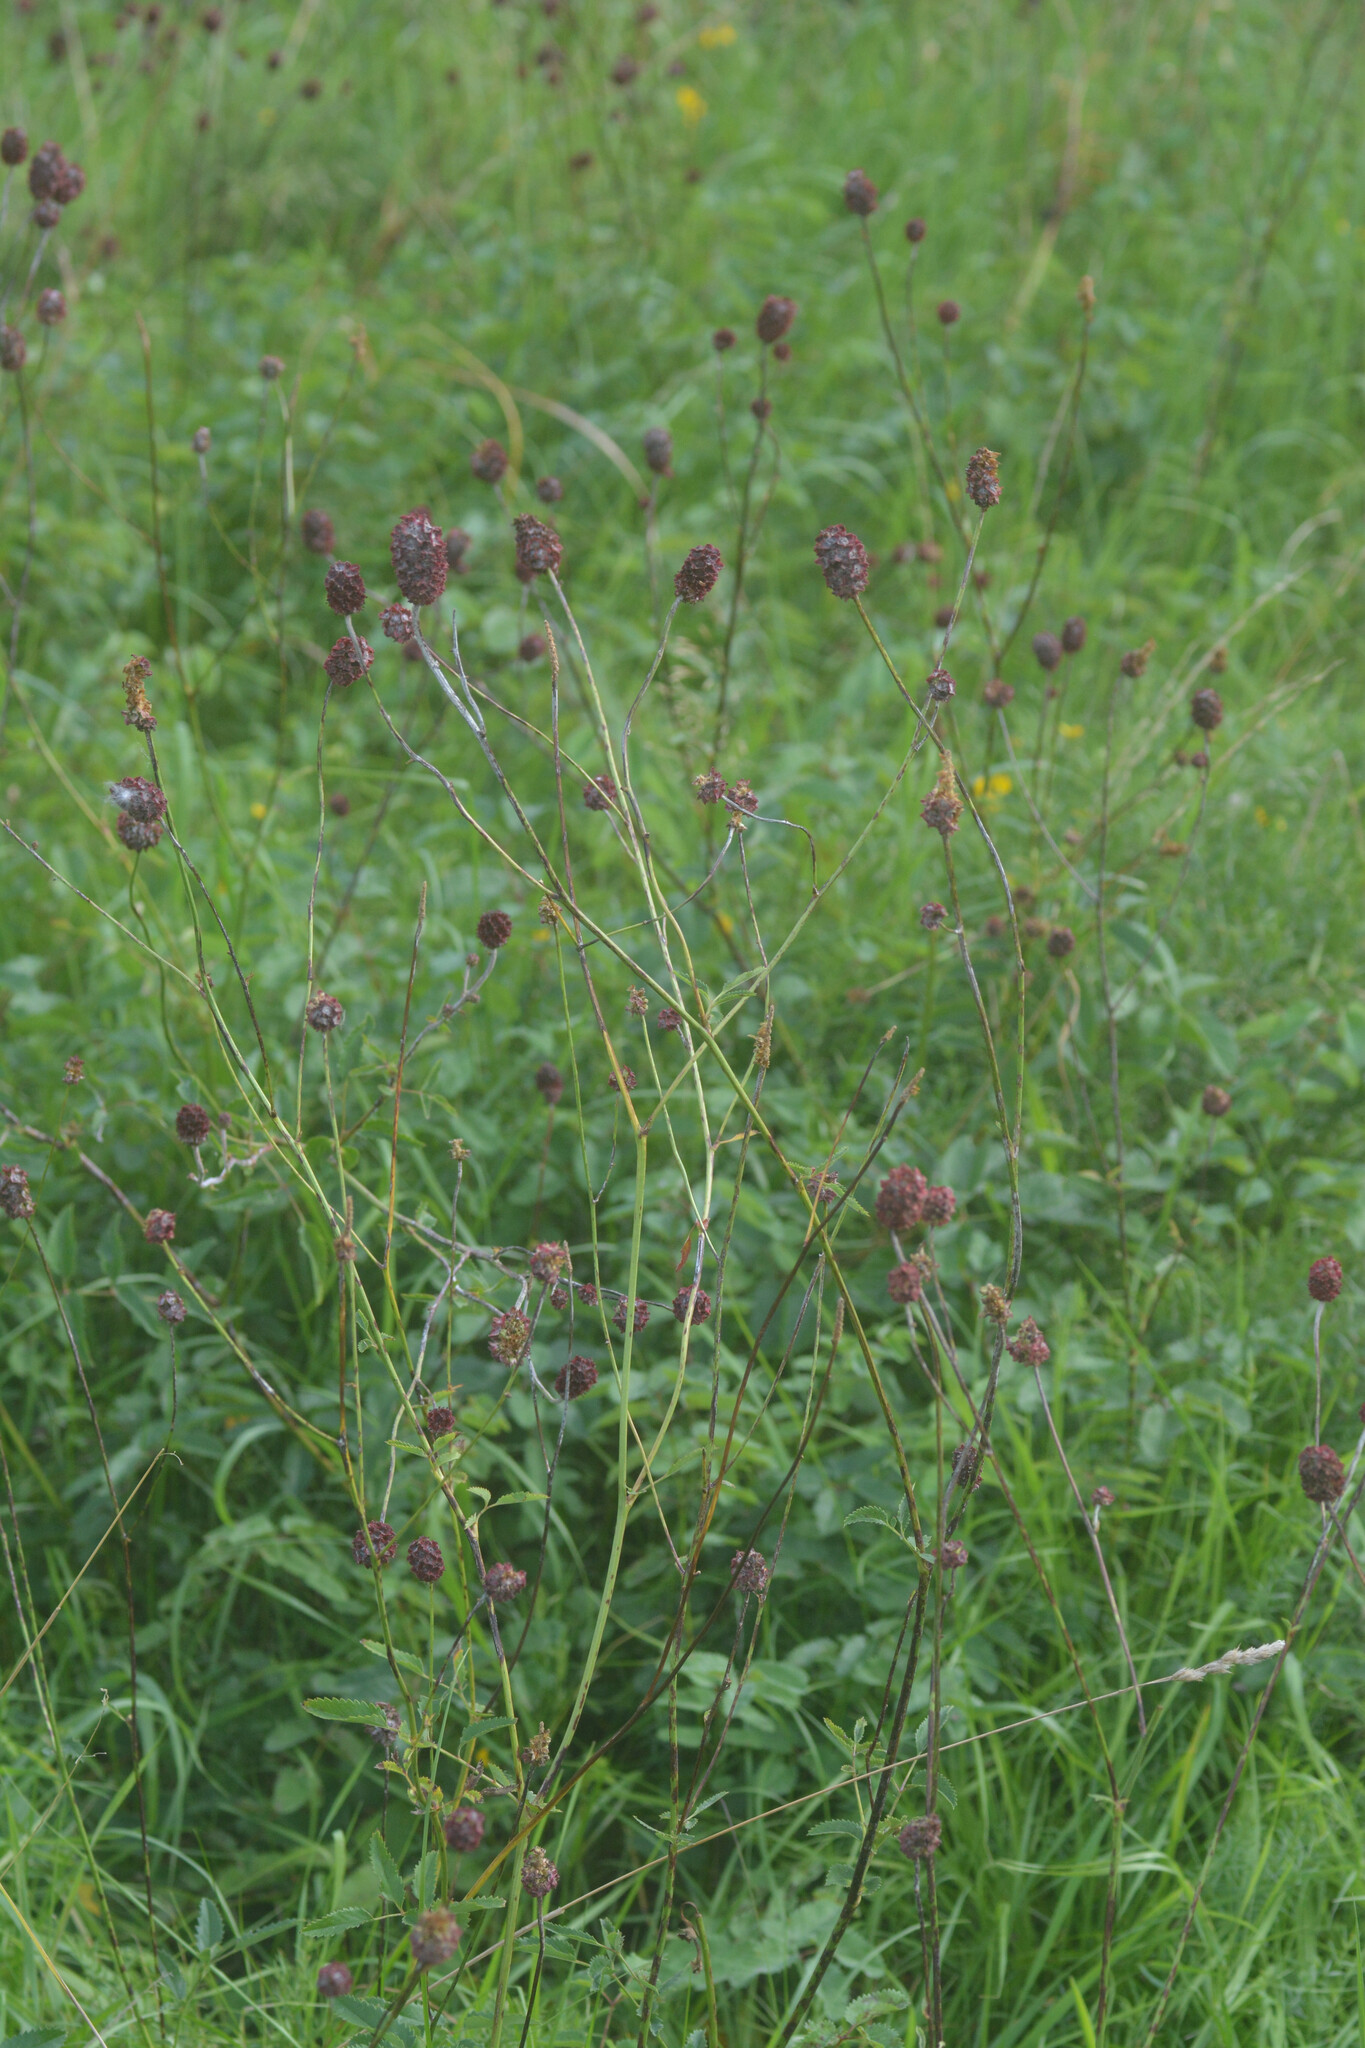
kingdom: Plantae
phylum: Tracheophyta
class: Magnoliopsida
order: Rosales
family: Rosaceae
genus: Sanguisorba
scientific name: Sanguisorba officinalis
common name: Great burnet
